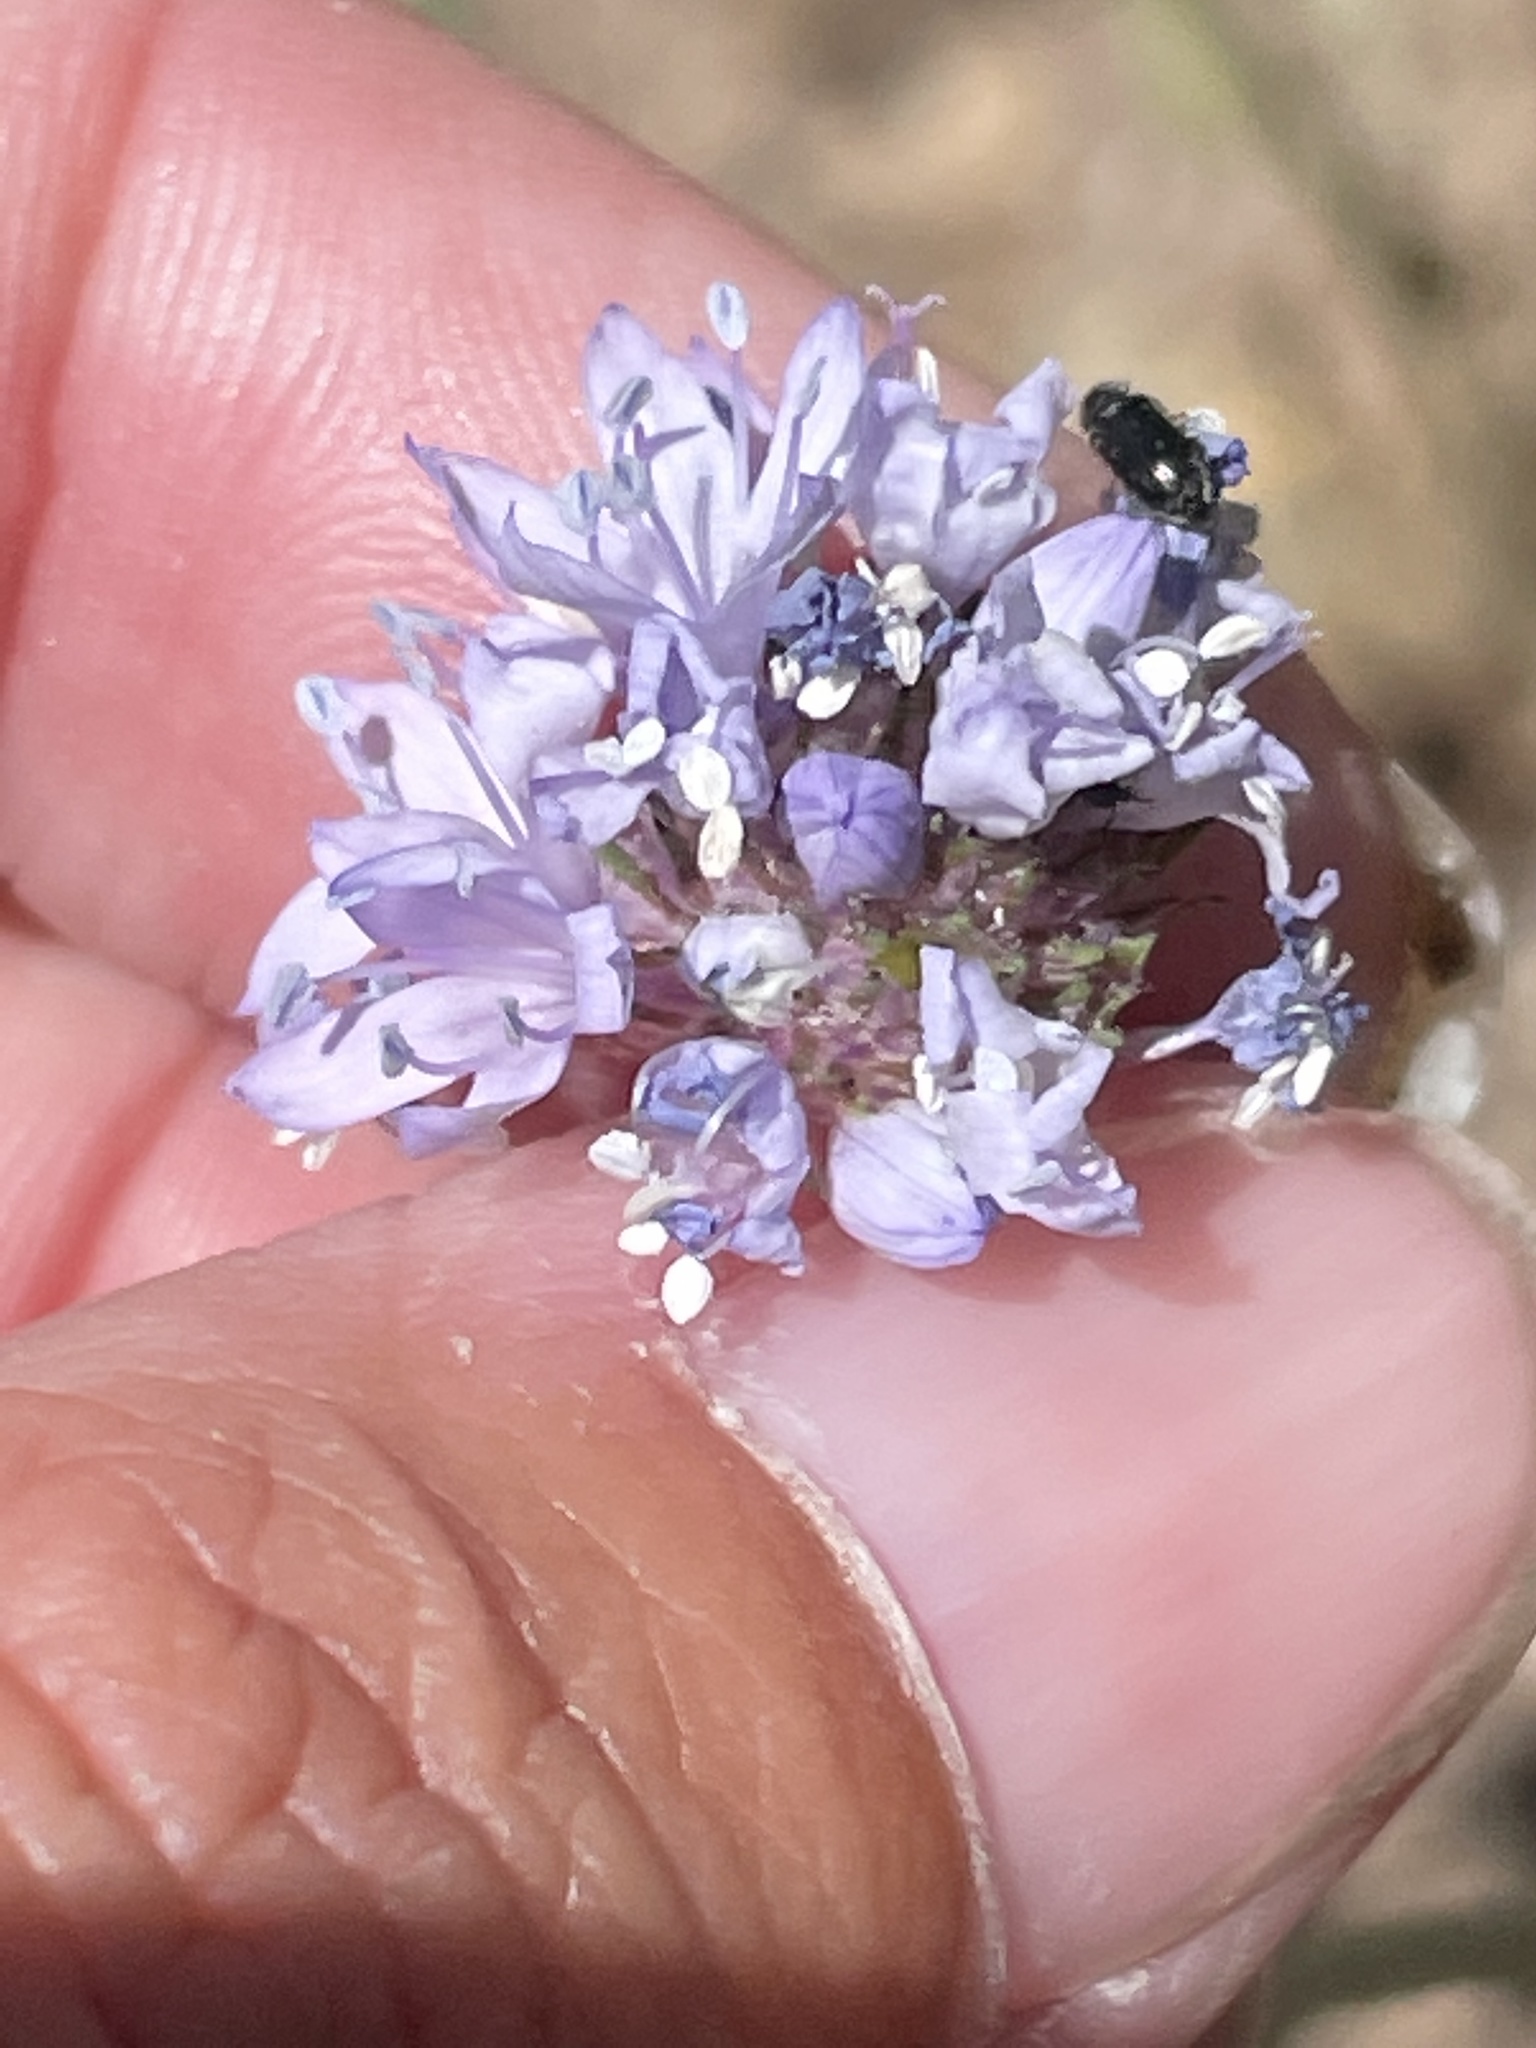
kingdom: Plantae
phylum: Tracheophyta
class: Magnoliopsida
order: Ericales
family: Polemoniaceae
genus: Gilia
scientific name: Gilia capitata
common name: Bluehead gilia
